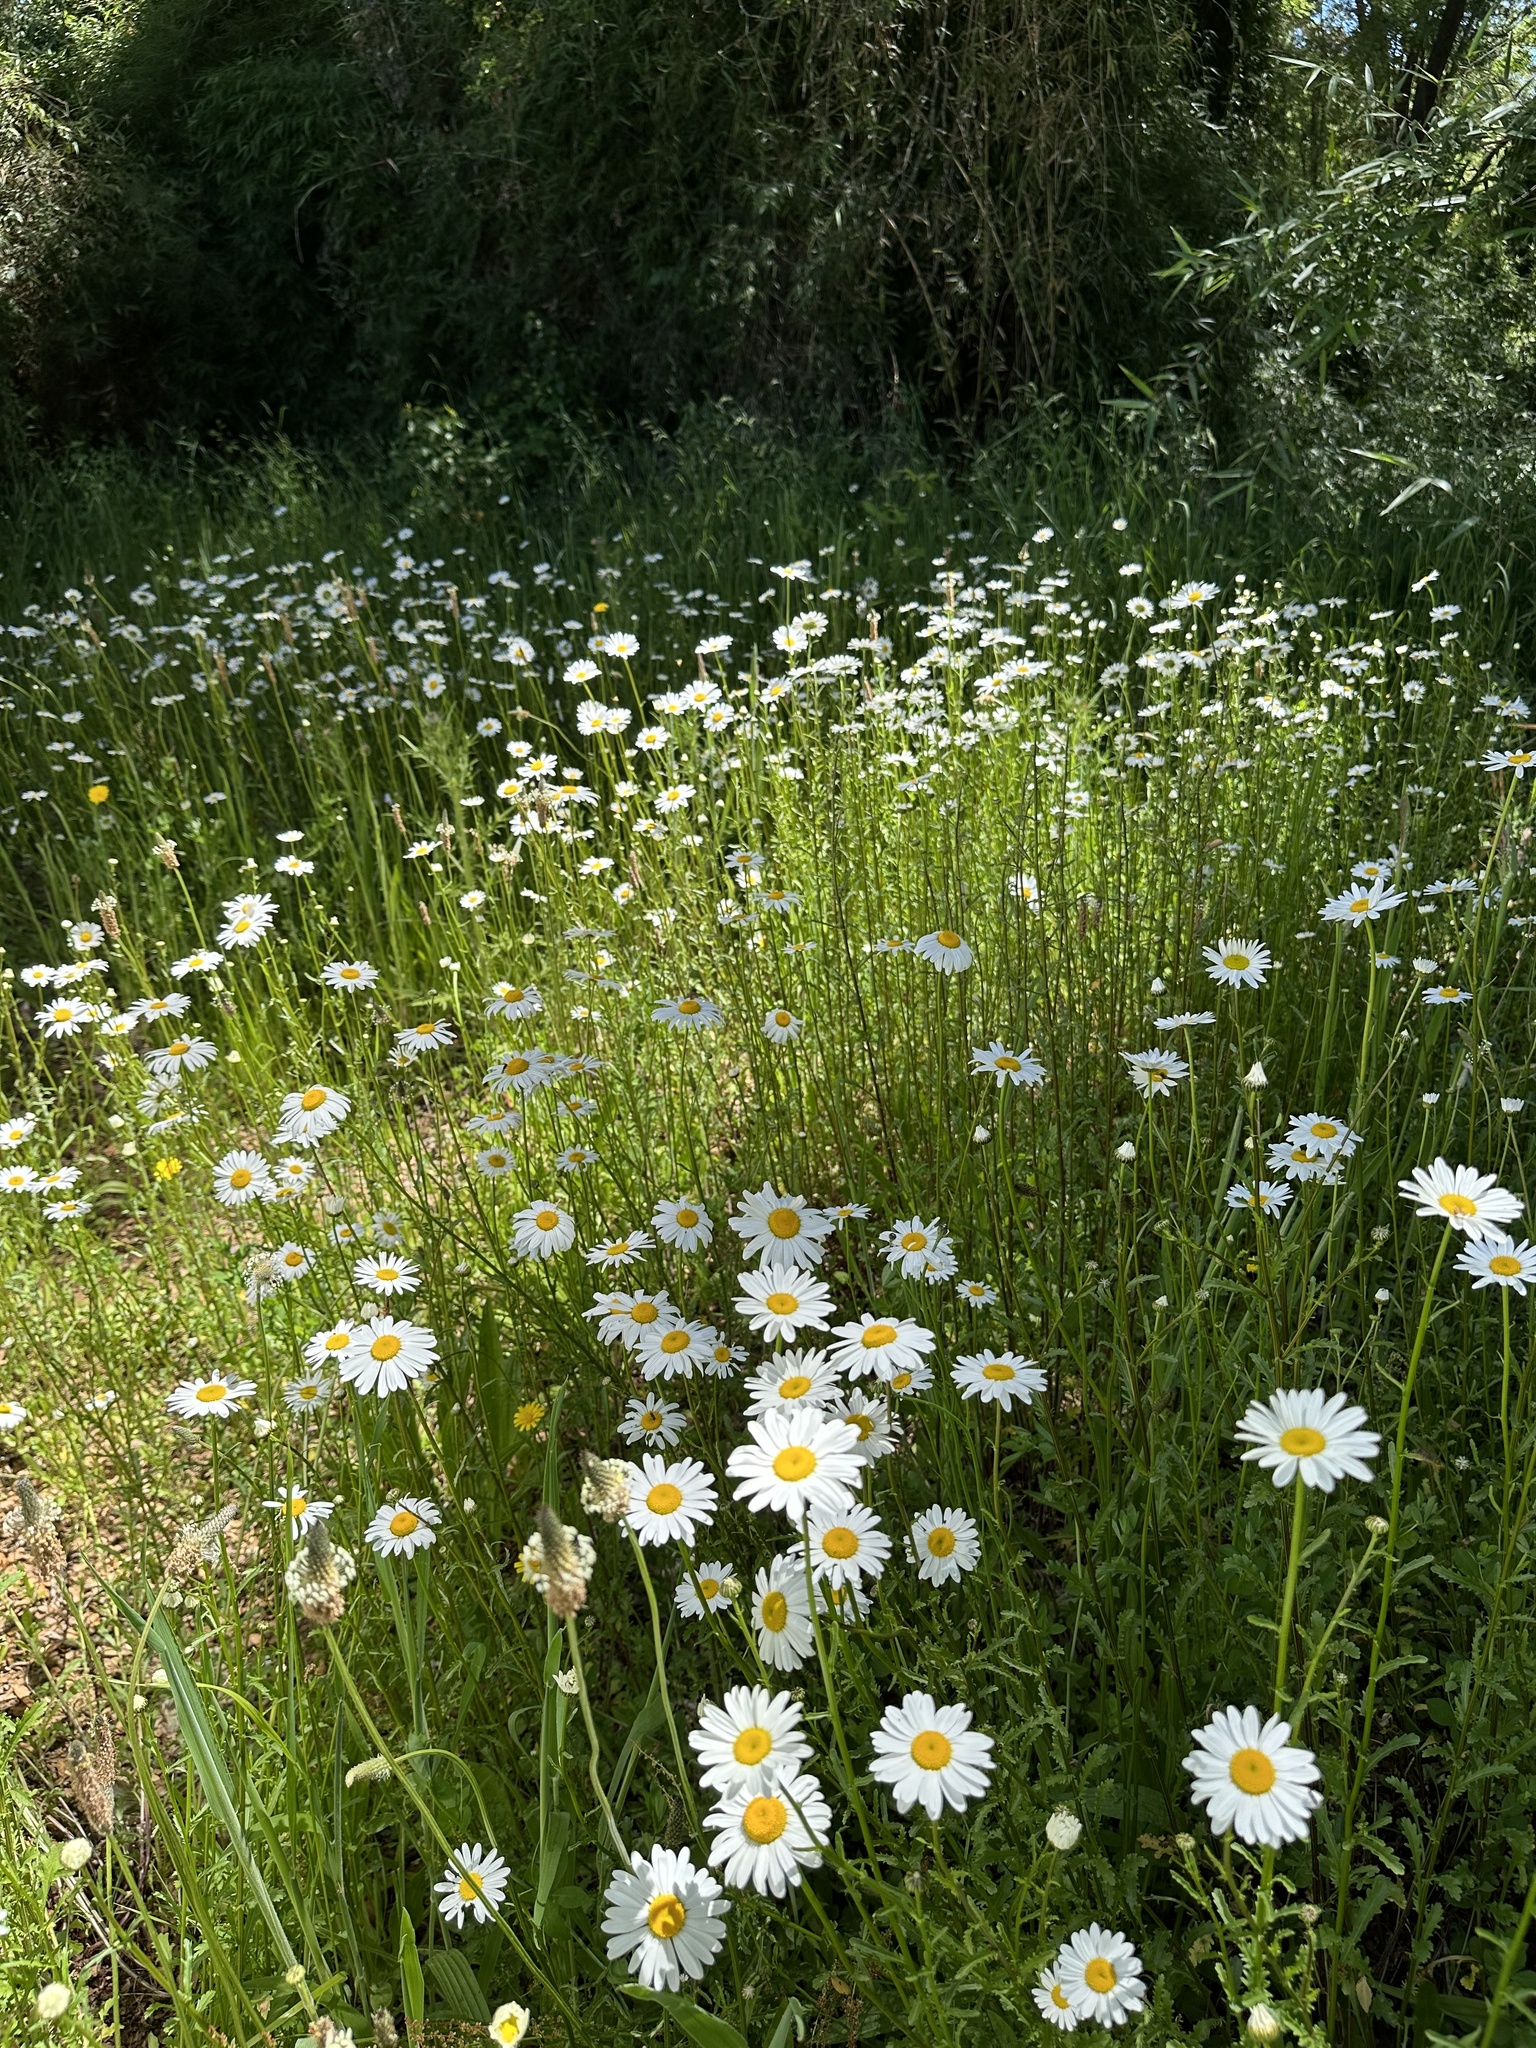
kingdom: Plantae
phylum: Tracheophyta
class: Magnoliopsida
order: Asterales
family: Asteraceae
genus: Leucanthemum
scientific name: Leucanthemum vulgare
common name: Oxeye daisy
